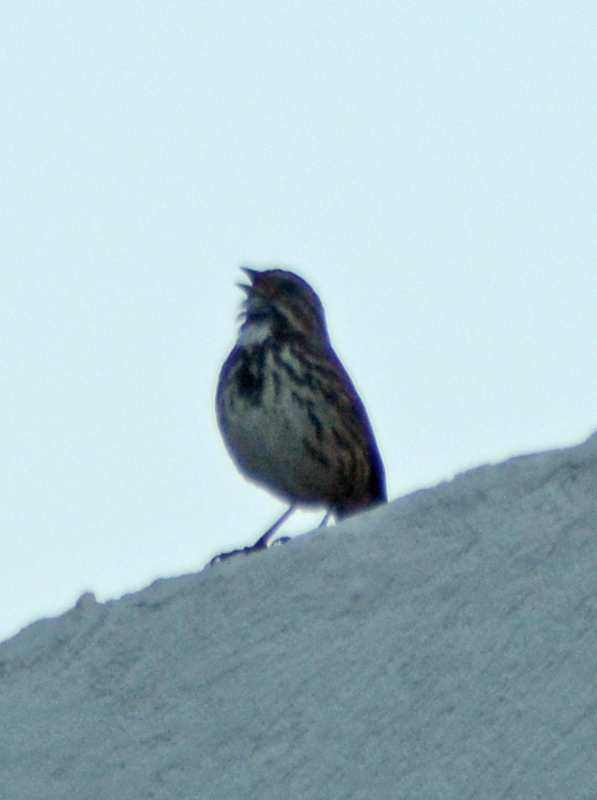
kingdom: Animalia
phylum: Chordata
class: Aves
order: Passeriformes
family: Passerellidae
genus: Melospiza
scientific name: Melospiza melodia
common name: Song sparrow
